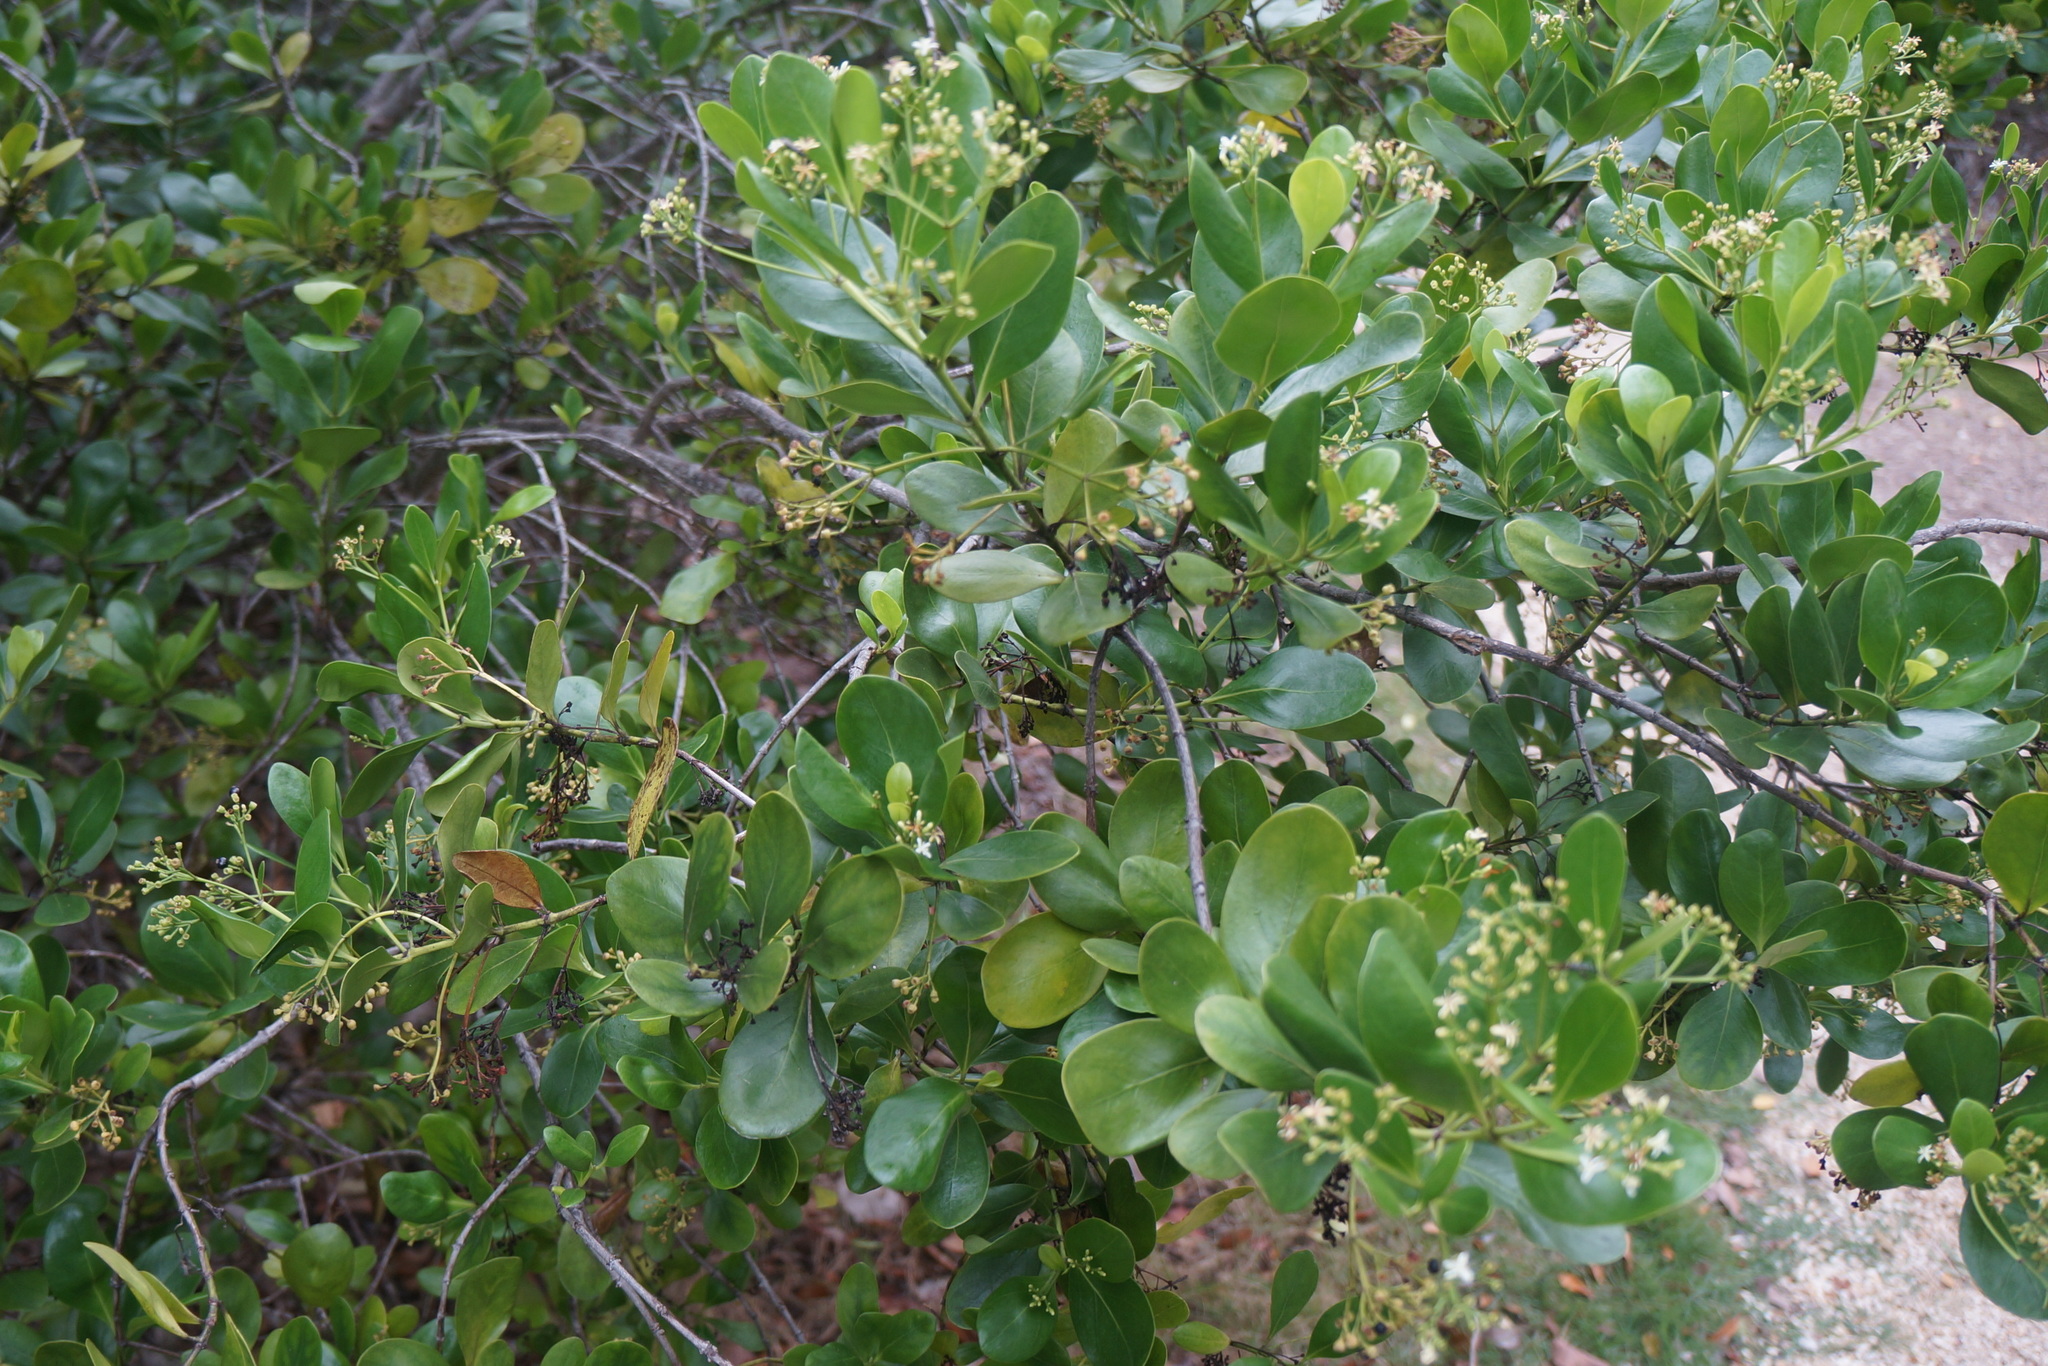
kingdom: Plantae
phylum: Tracheophyta
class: Magnoliopsida
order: Gentianales
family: Rubiaceae
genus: Erithalis
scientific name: Erithalis fruticosa
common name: Candlewood
